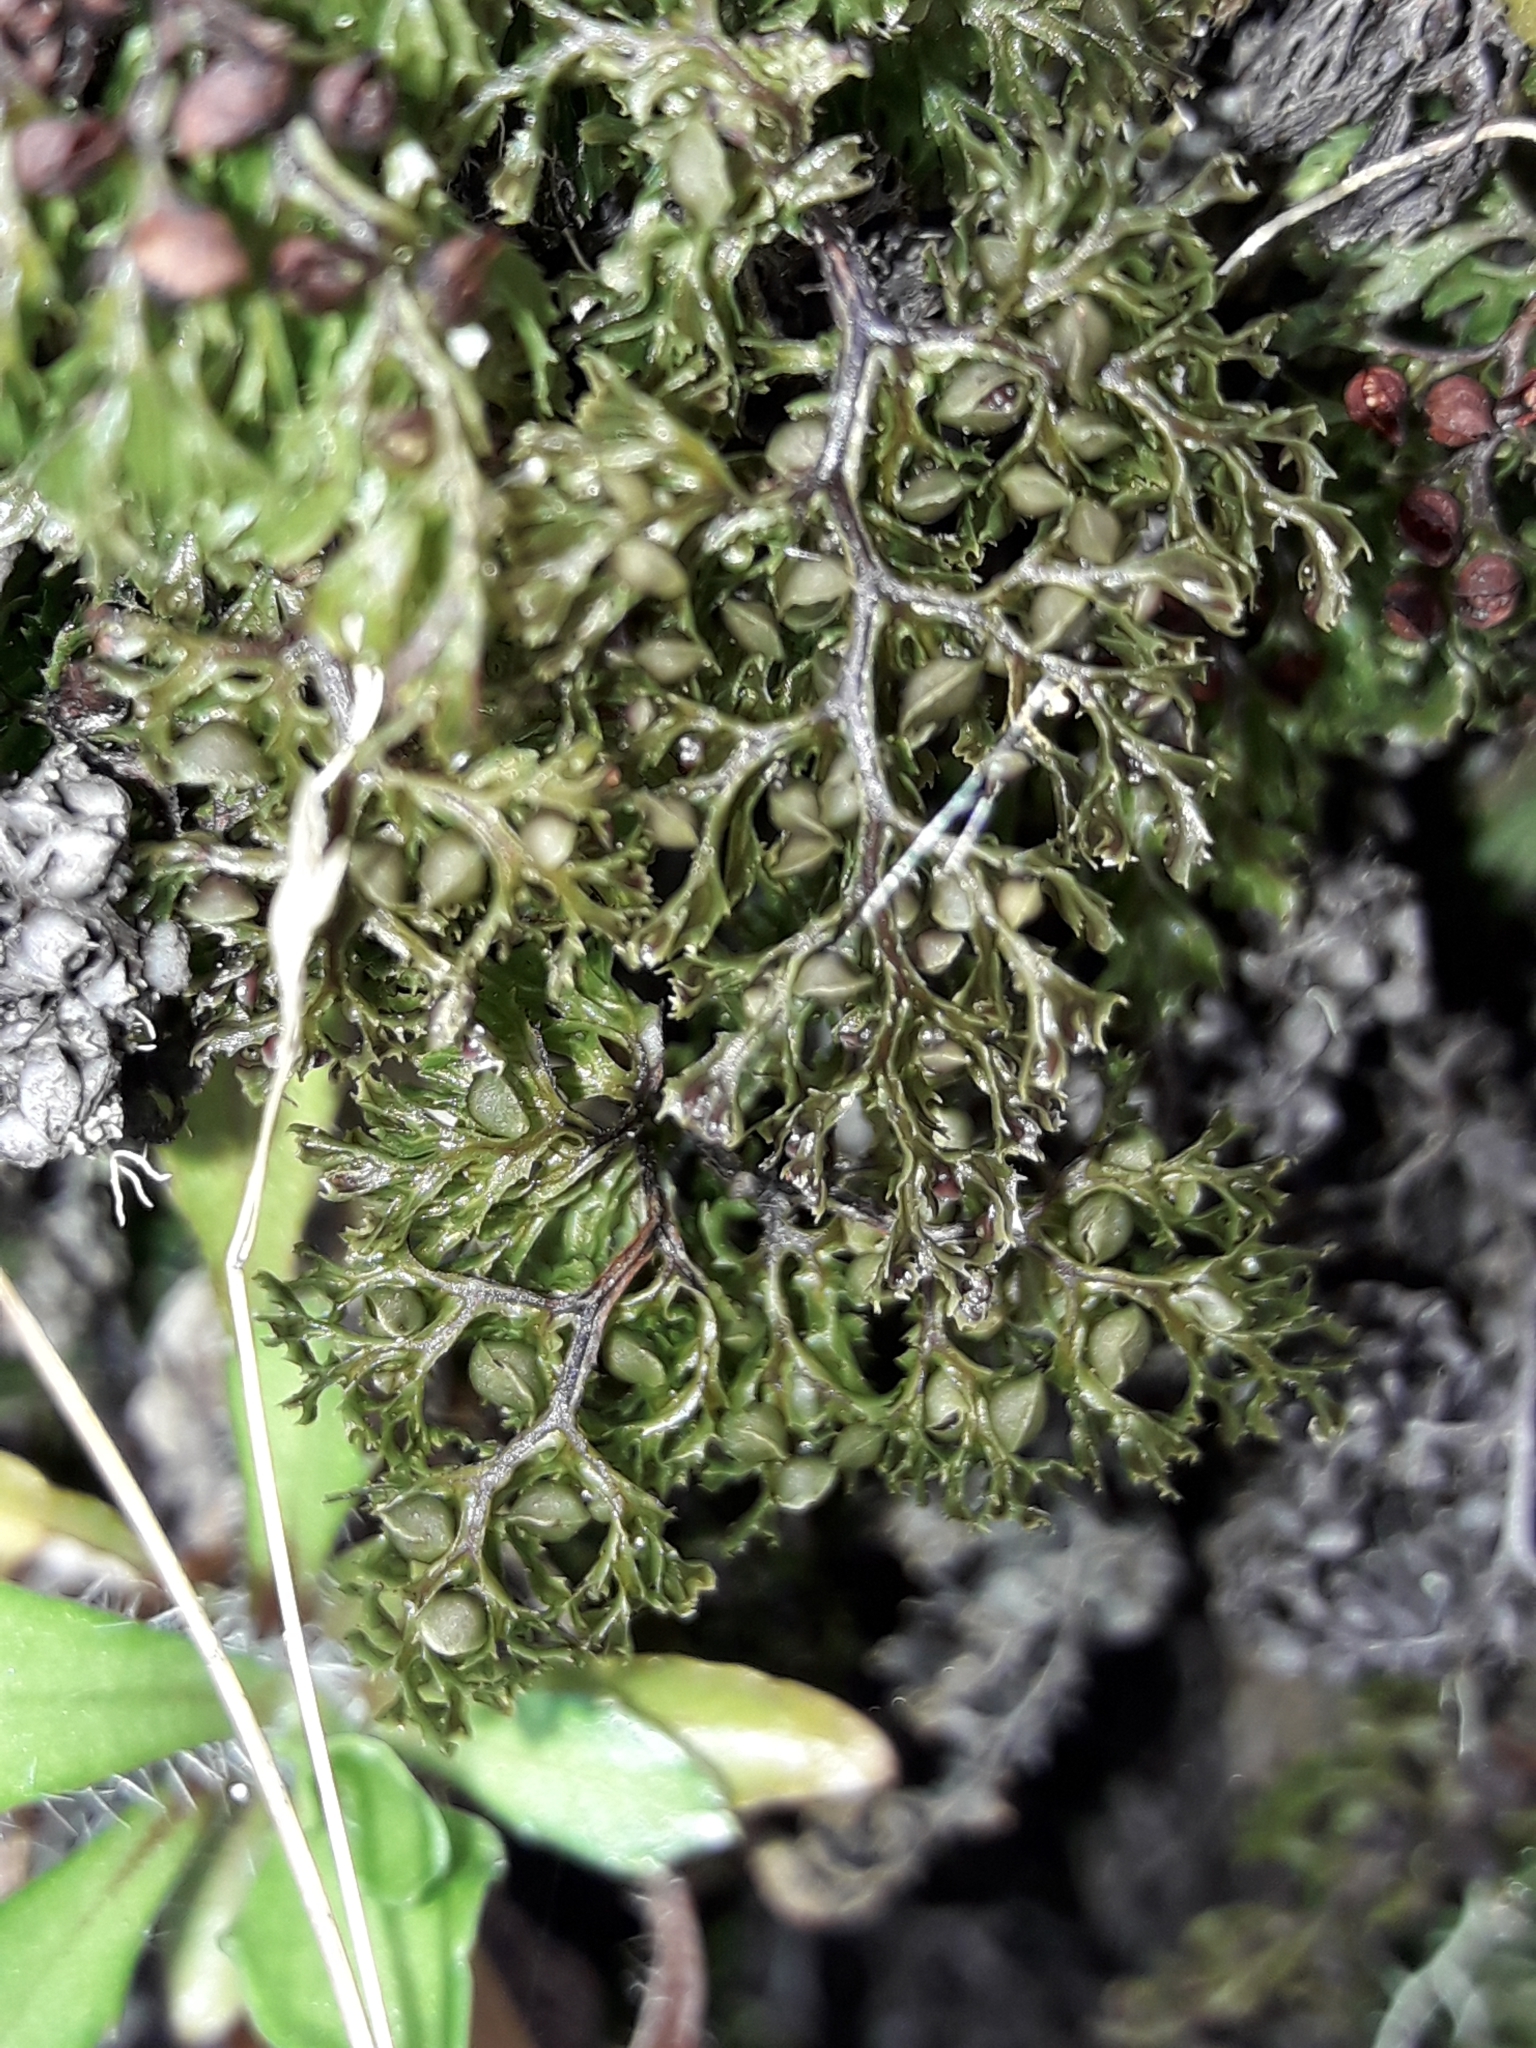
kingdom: Plantae
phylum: Tracheophyta
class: Polypodiopsida
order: Hymenophyllales
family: Hymenophyllaceae
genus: Hymenophyllum
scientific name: Hymenophyllum multifidum
